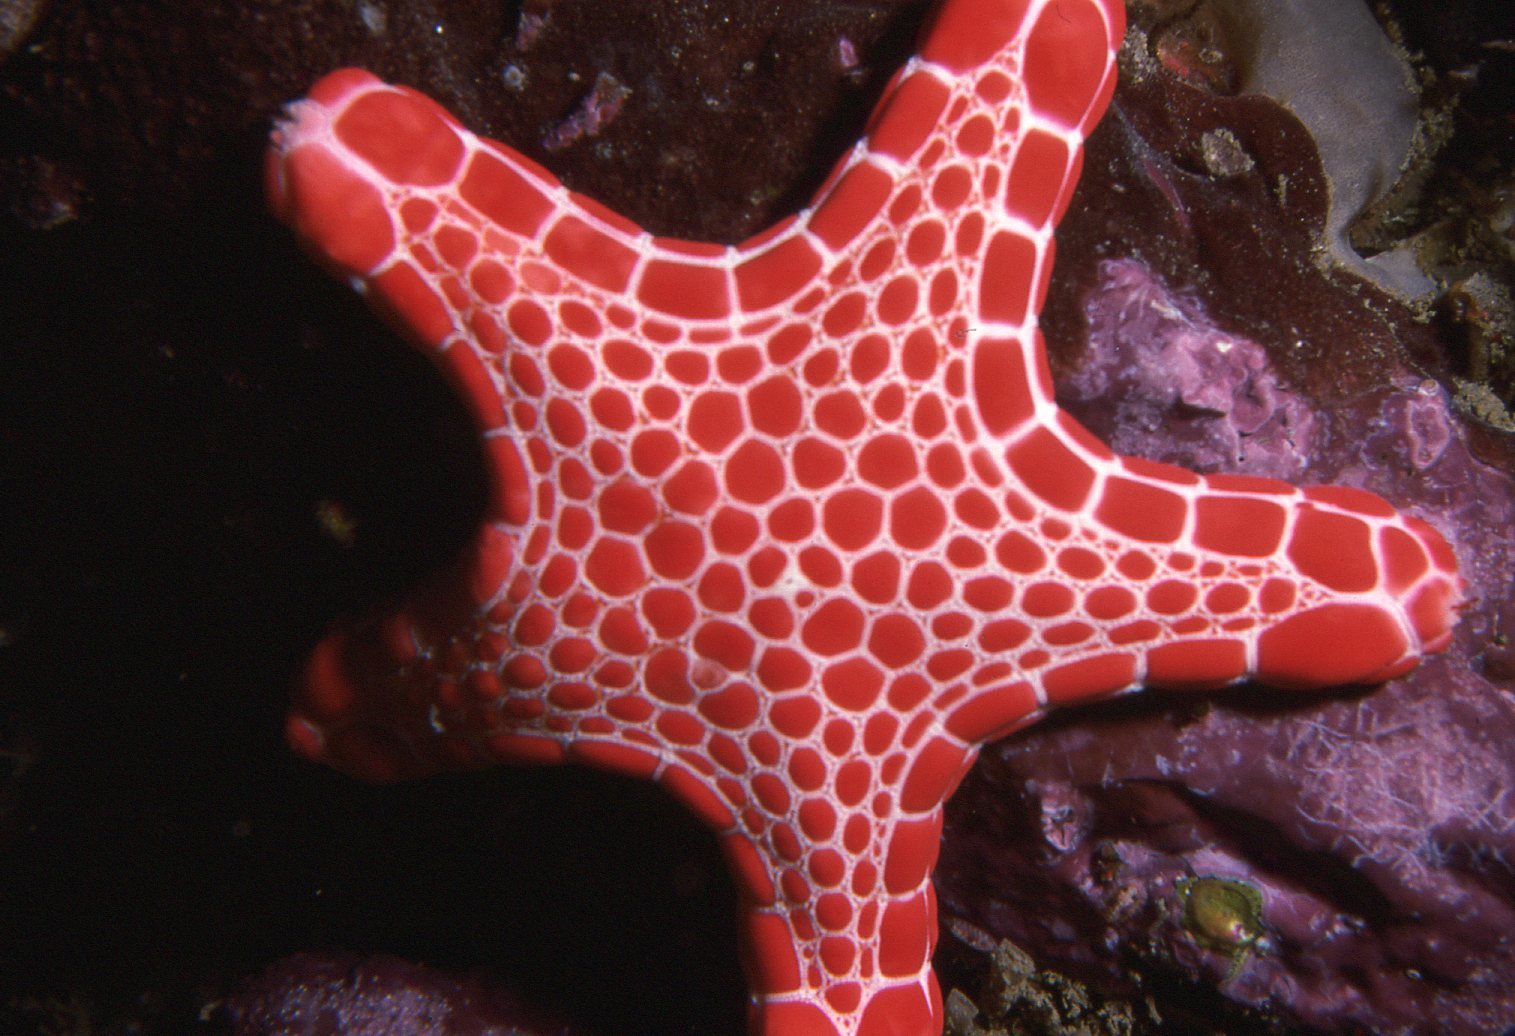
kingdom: Animalia
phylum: Echinodermata
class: Asteroidea
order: Valvatida
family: Goniasteridae
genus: Pentagonaster
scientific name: Pentagonaster duebeni
